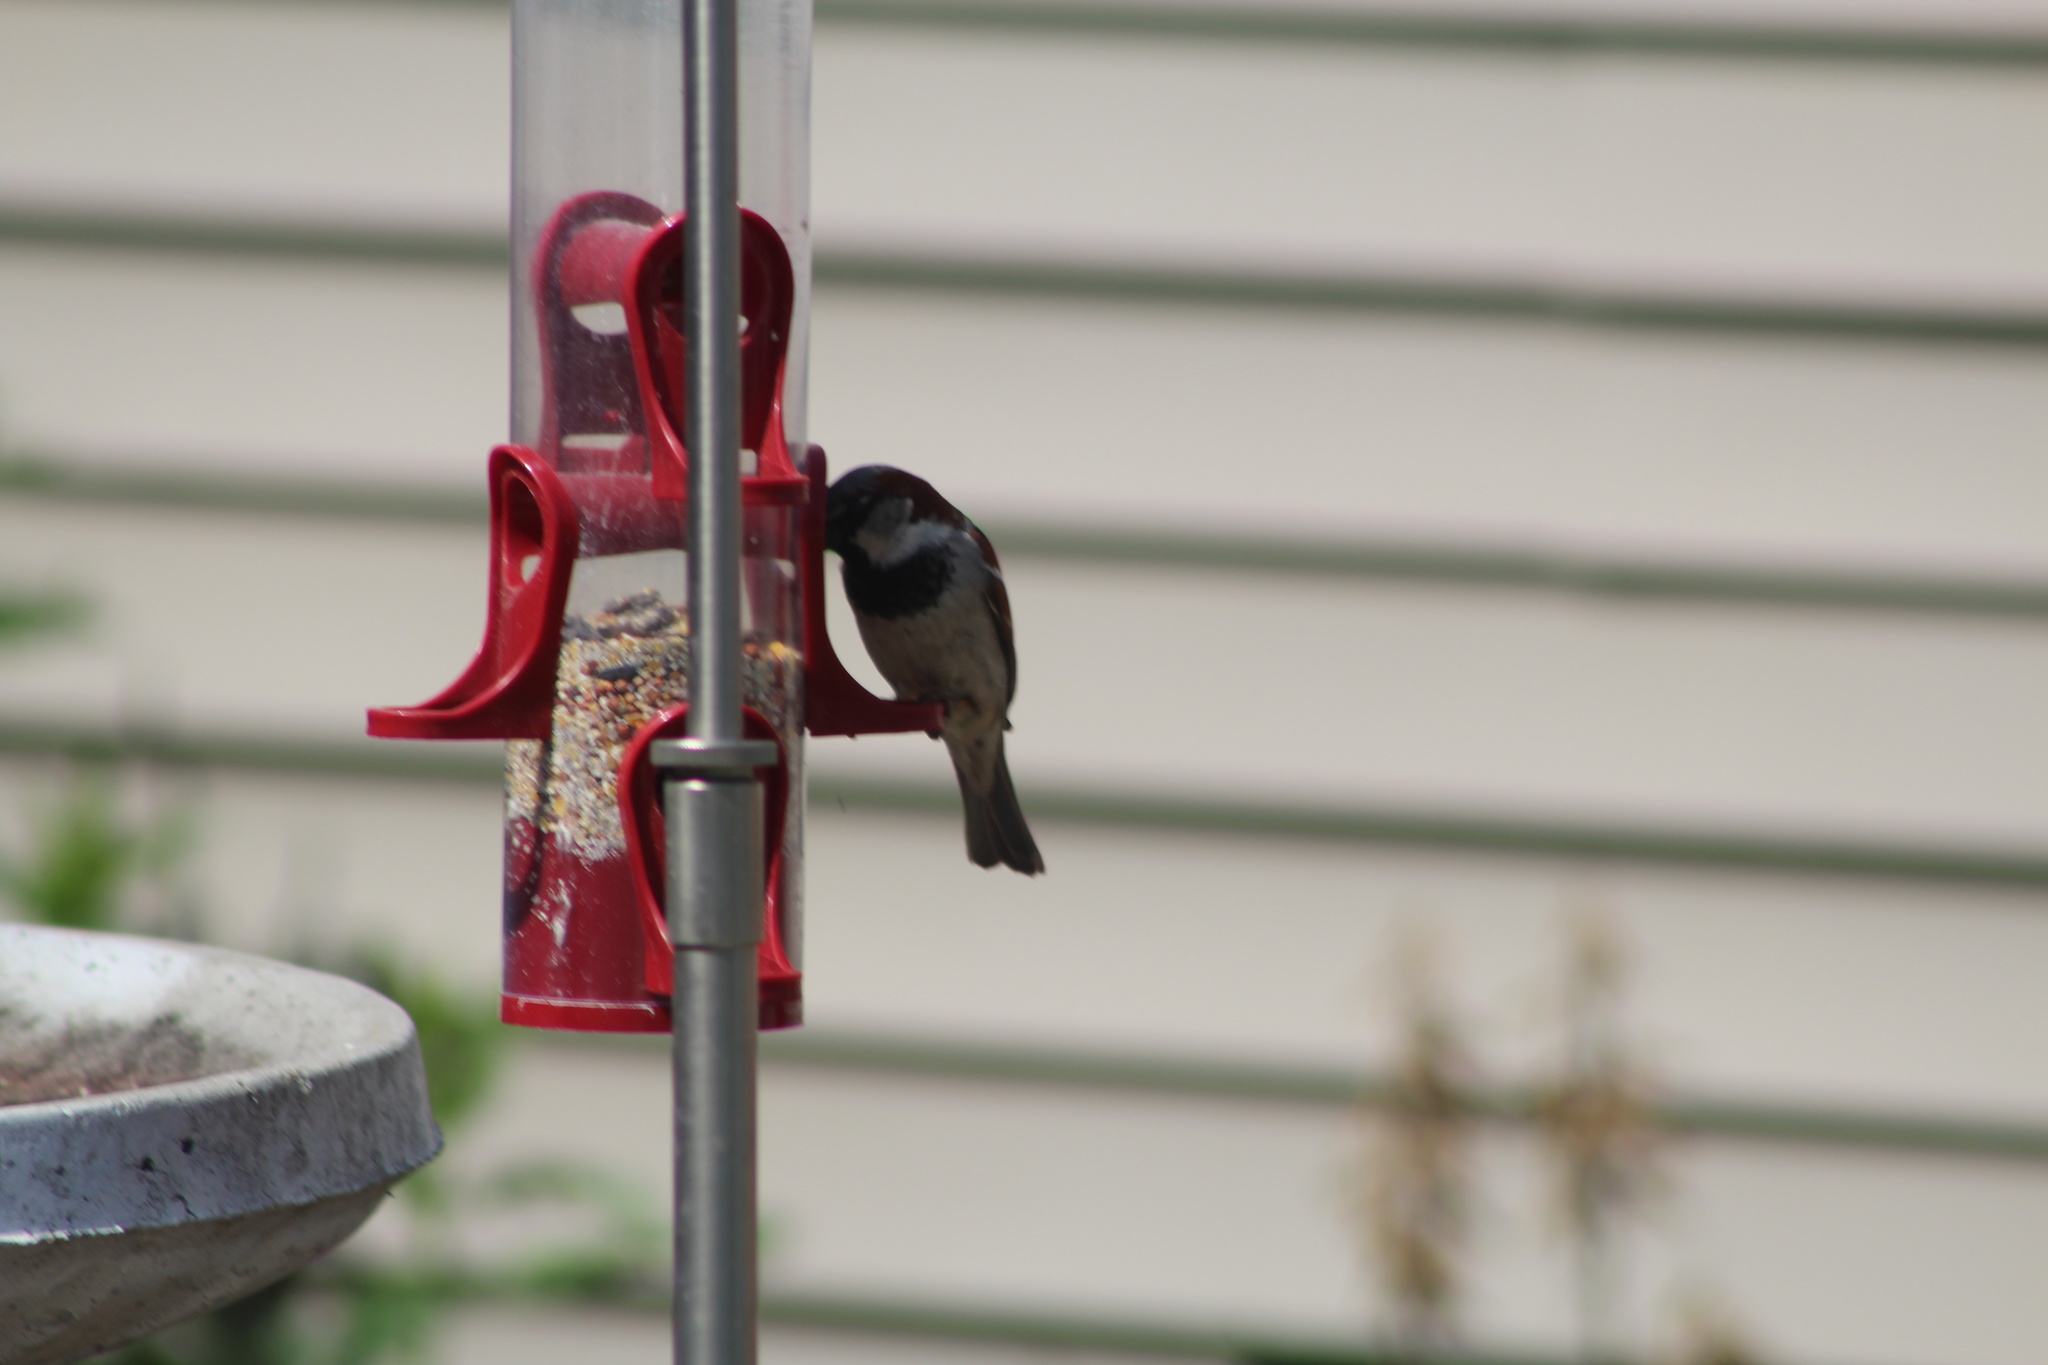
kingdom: Animalia
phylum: Chordata
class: Aves
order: Passeriformes
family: Passeridae
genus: Passer
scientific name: Passer domesticus
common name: House sparrow
